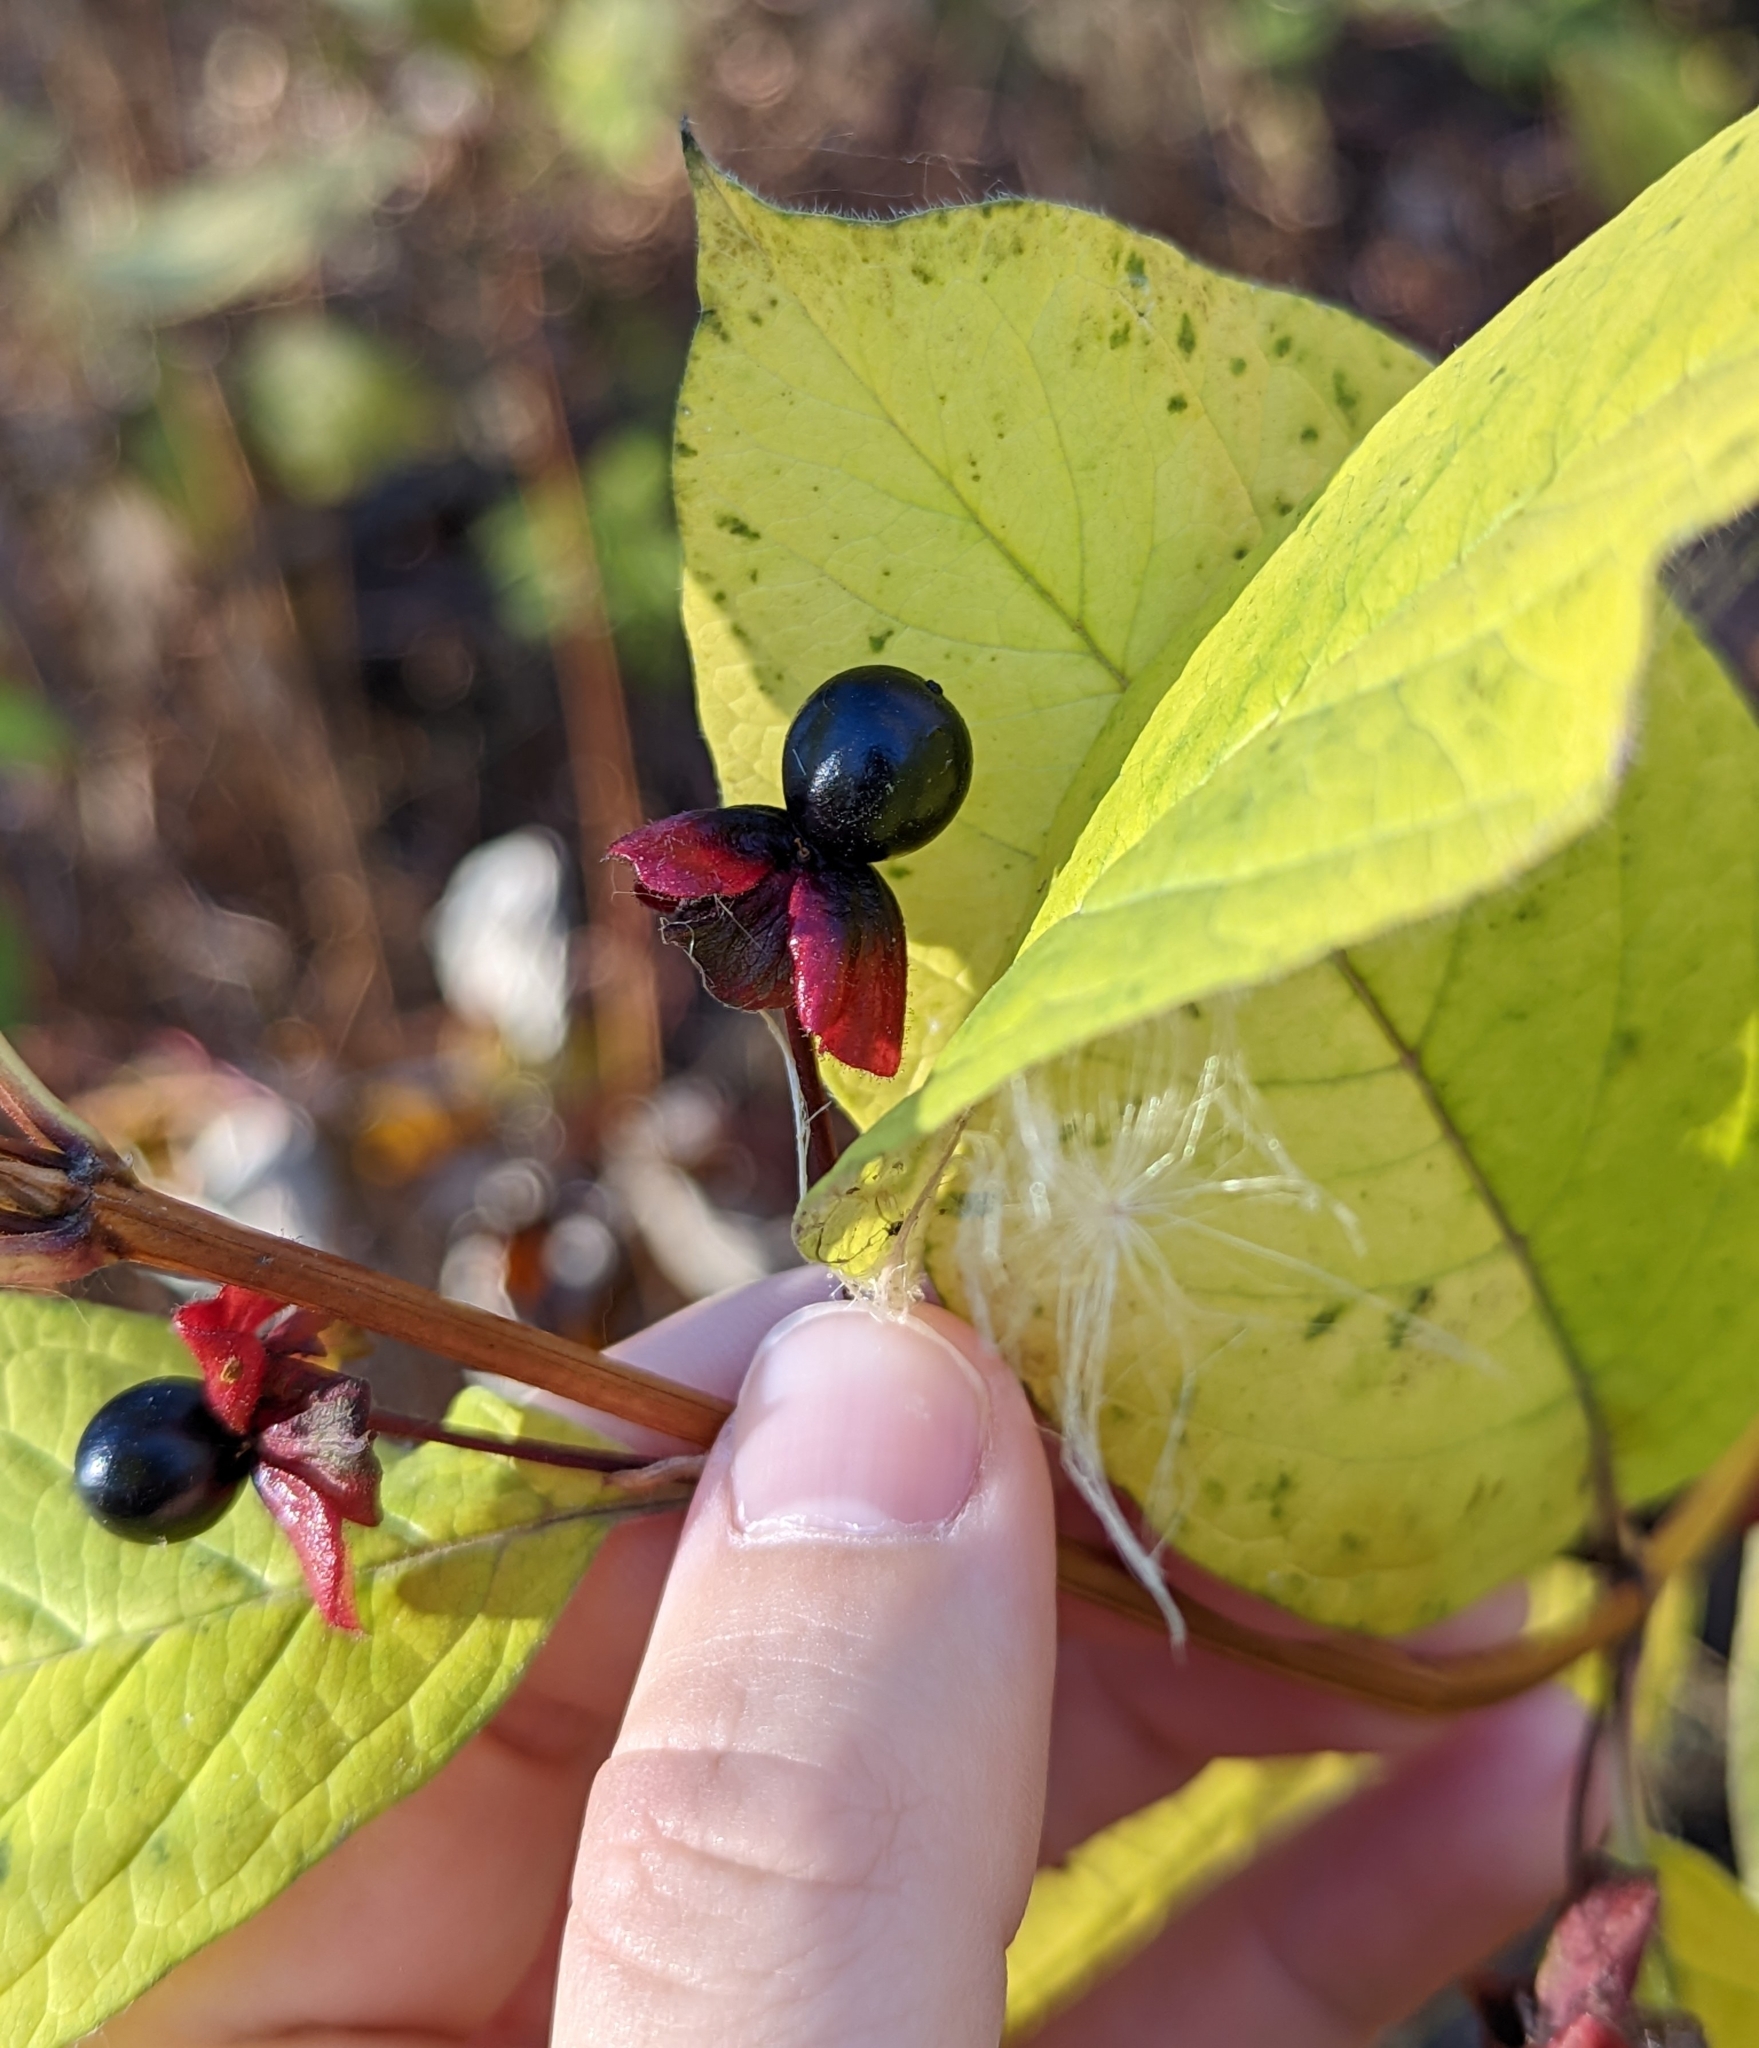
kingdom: Plantae
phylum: Tracheophyta
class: Magnoliopsida
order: Dipsacales
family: Caprifoliaceae
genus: Lonicera
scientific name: Lonicera involucrata
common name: Californian honeysuckle
